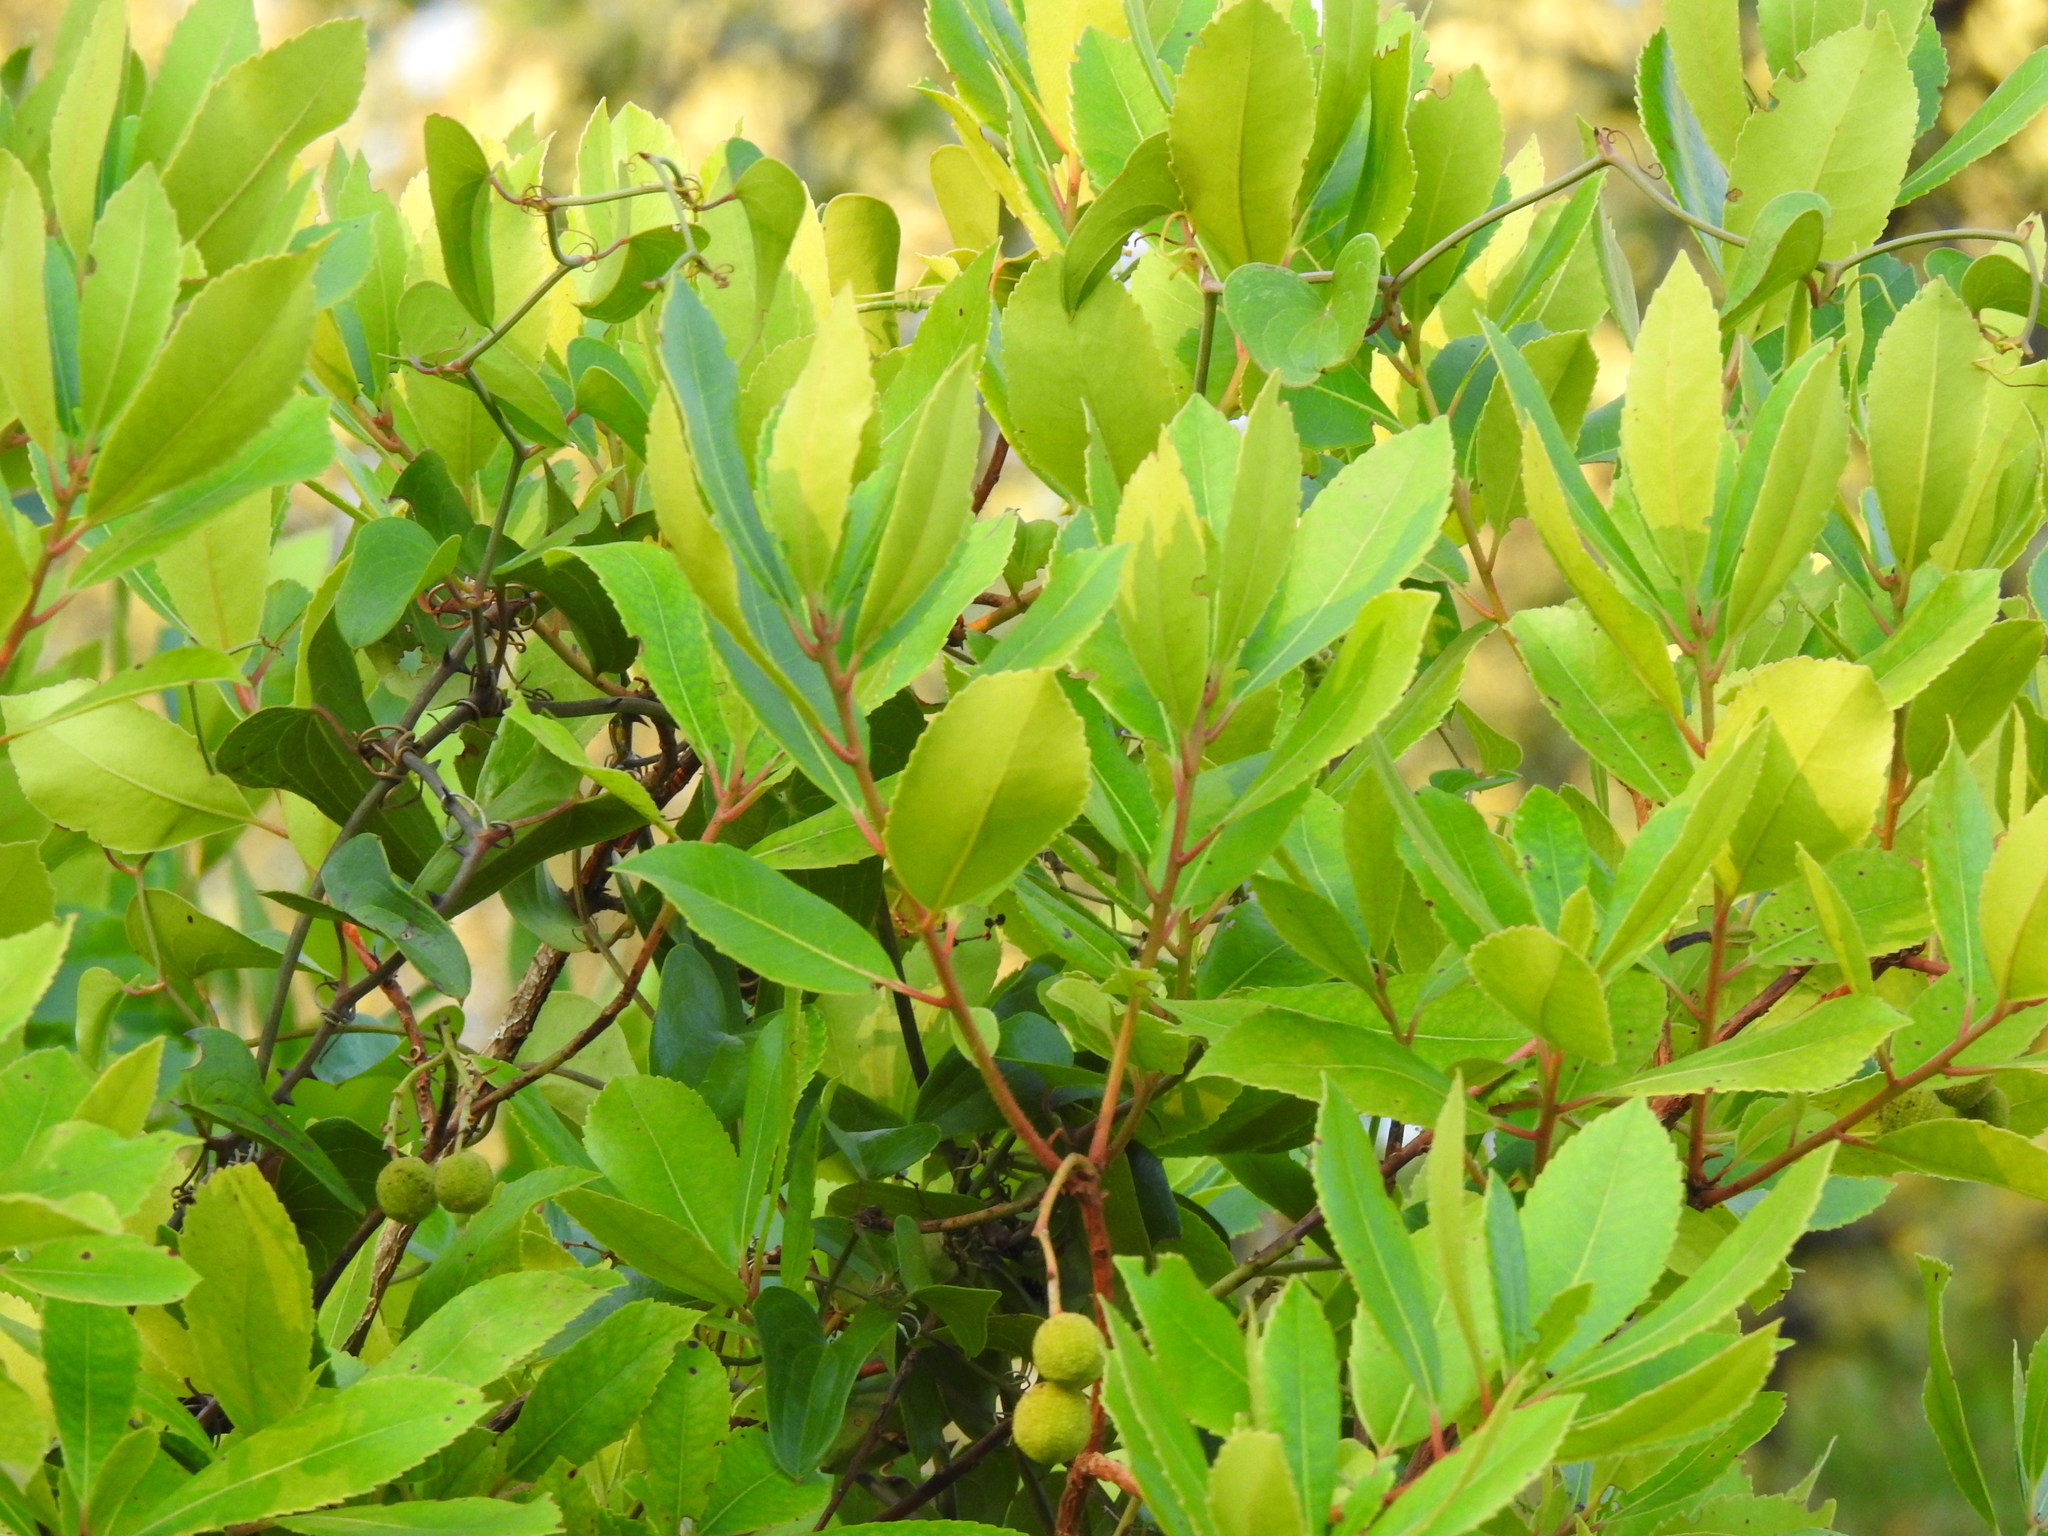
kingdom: Plantae
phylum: Tracheophyta
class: Magnoliopsida
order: Ericales
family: Ericaceae
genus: Arbutus
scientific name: Arbutus unedo
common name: Strawberry-tree
